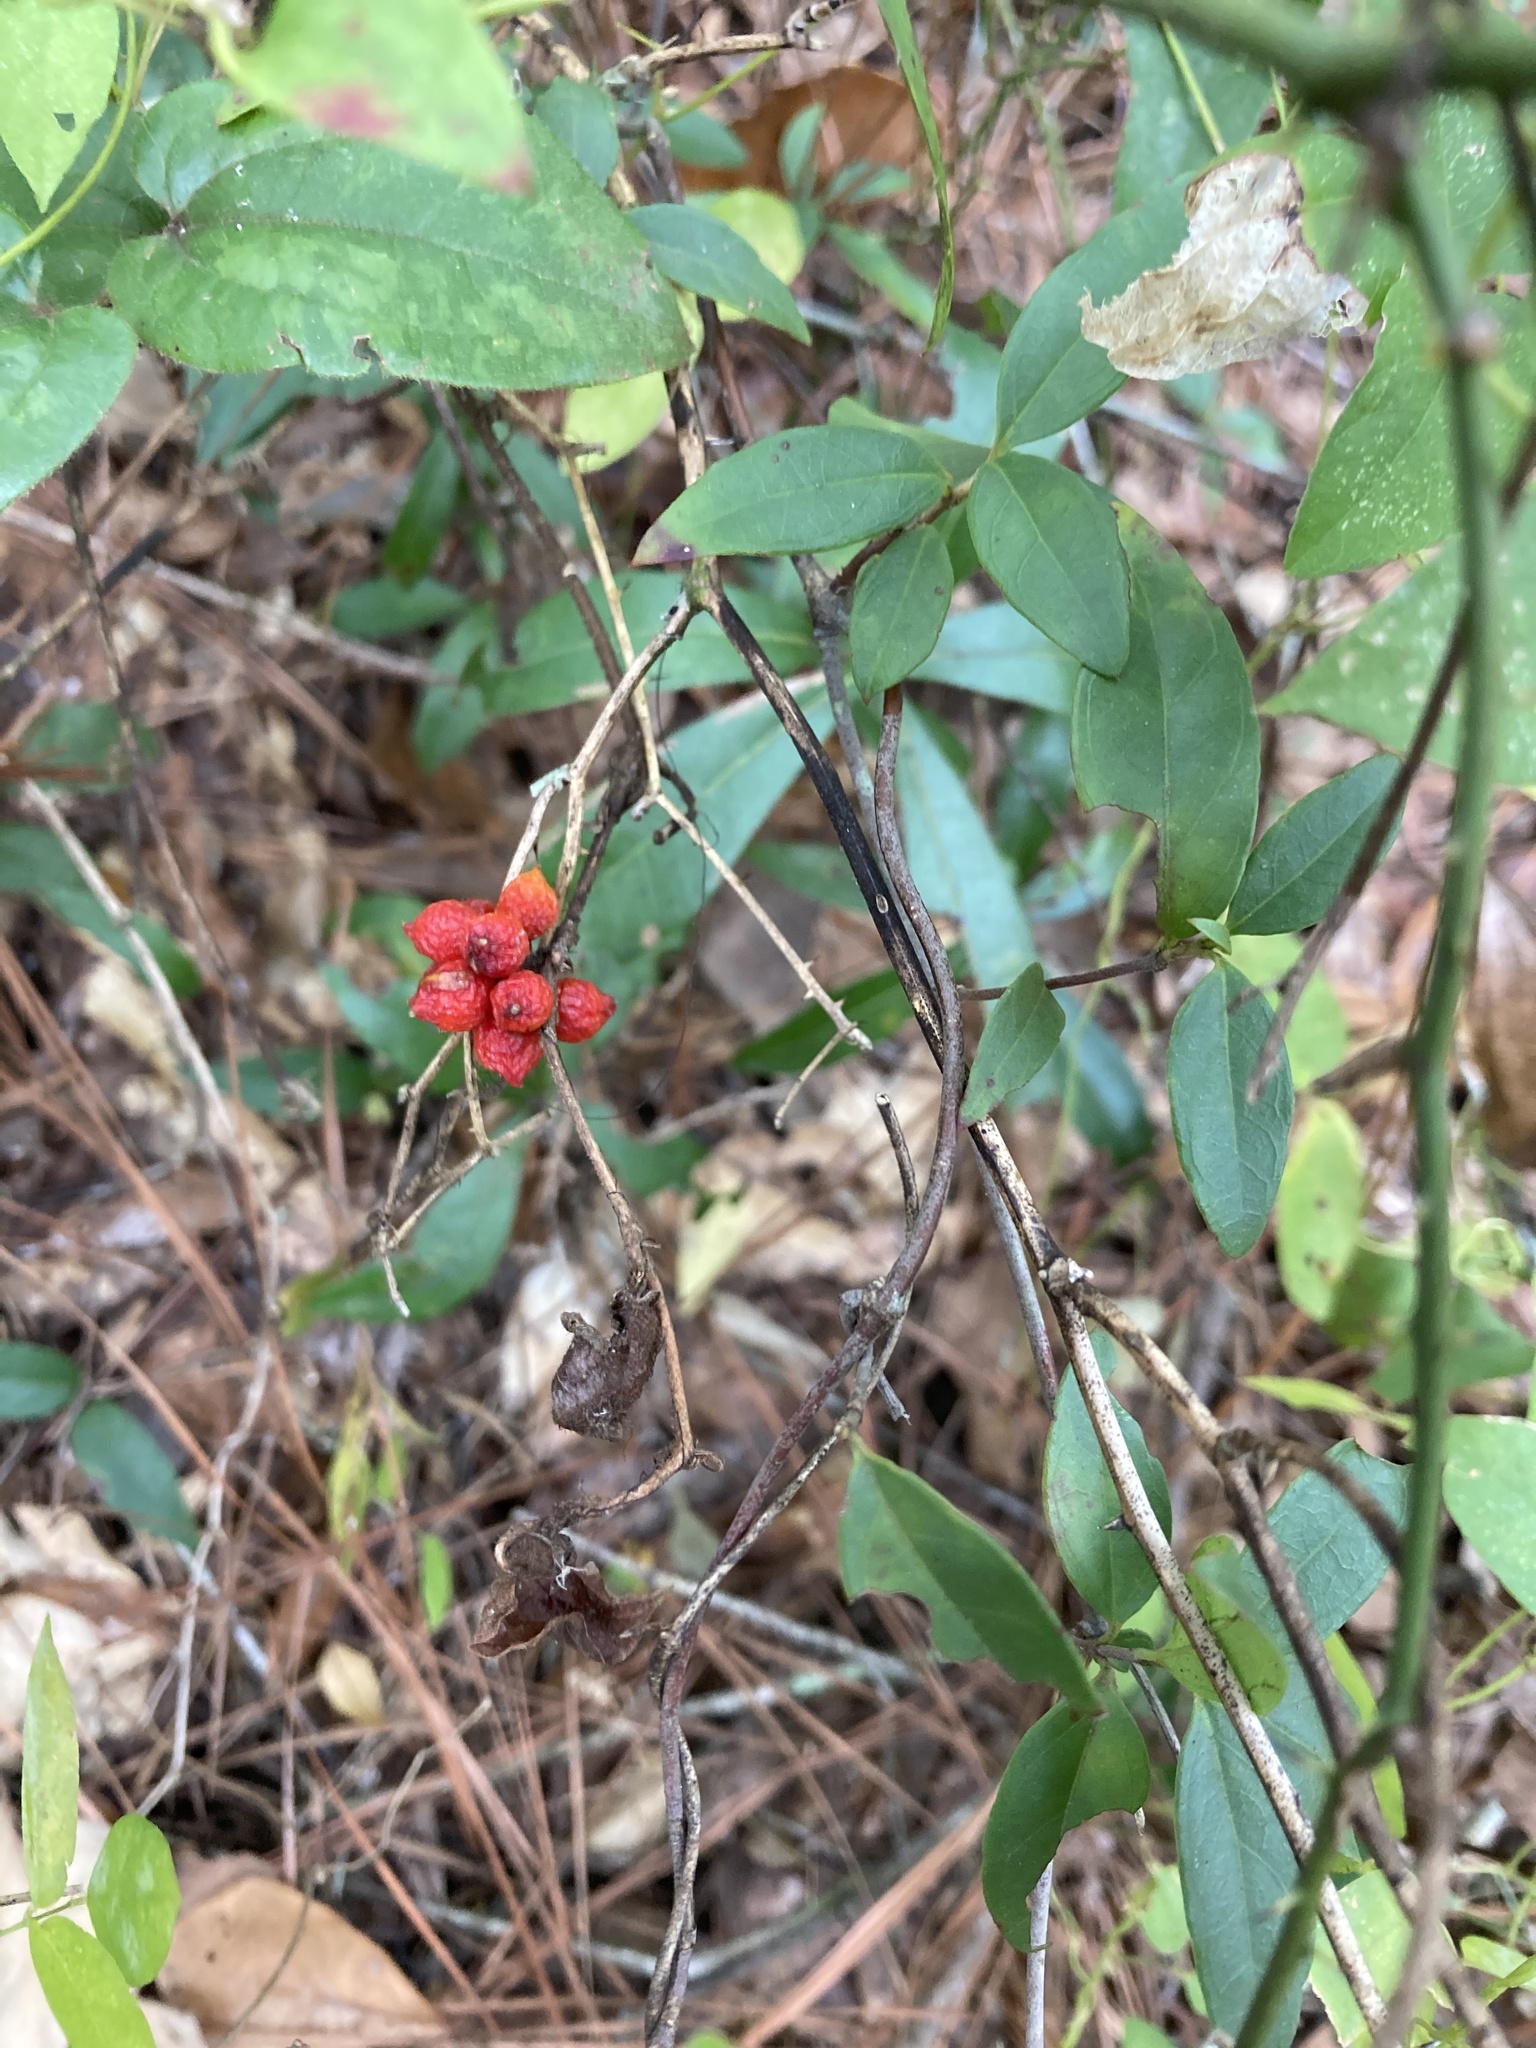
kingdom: Plantae
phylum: Tracheophyta
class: Liliopsida
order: Liliales
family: Smilacaceae
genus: Smilax
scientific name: Smilax pumila
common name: Sarsaparilla-vine
